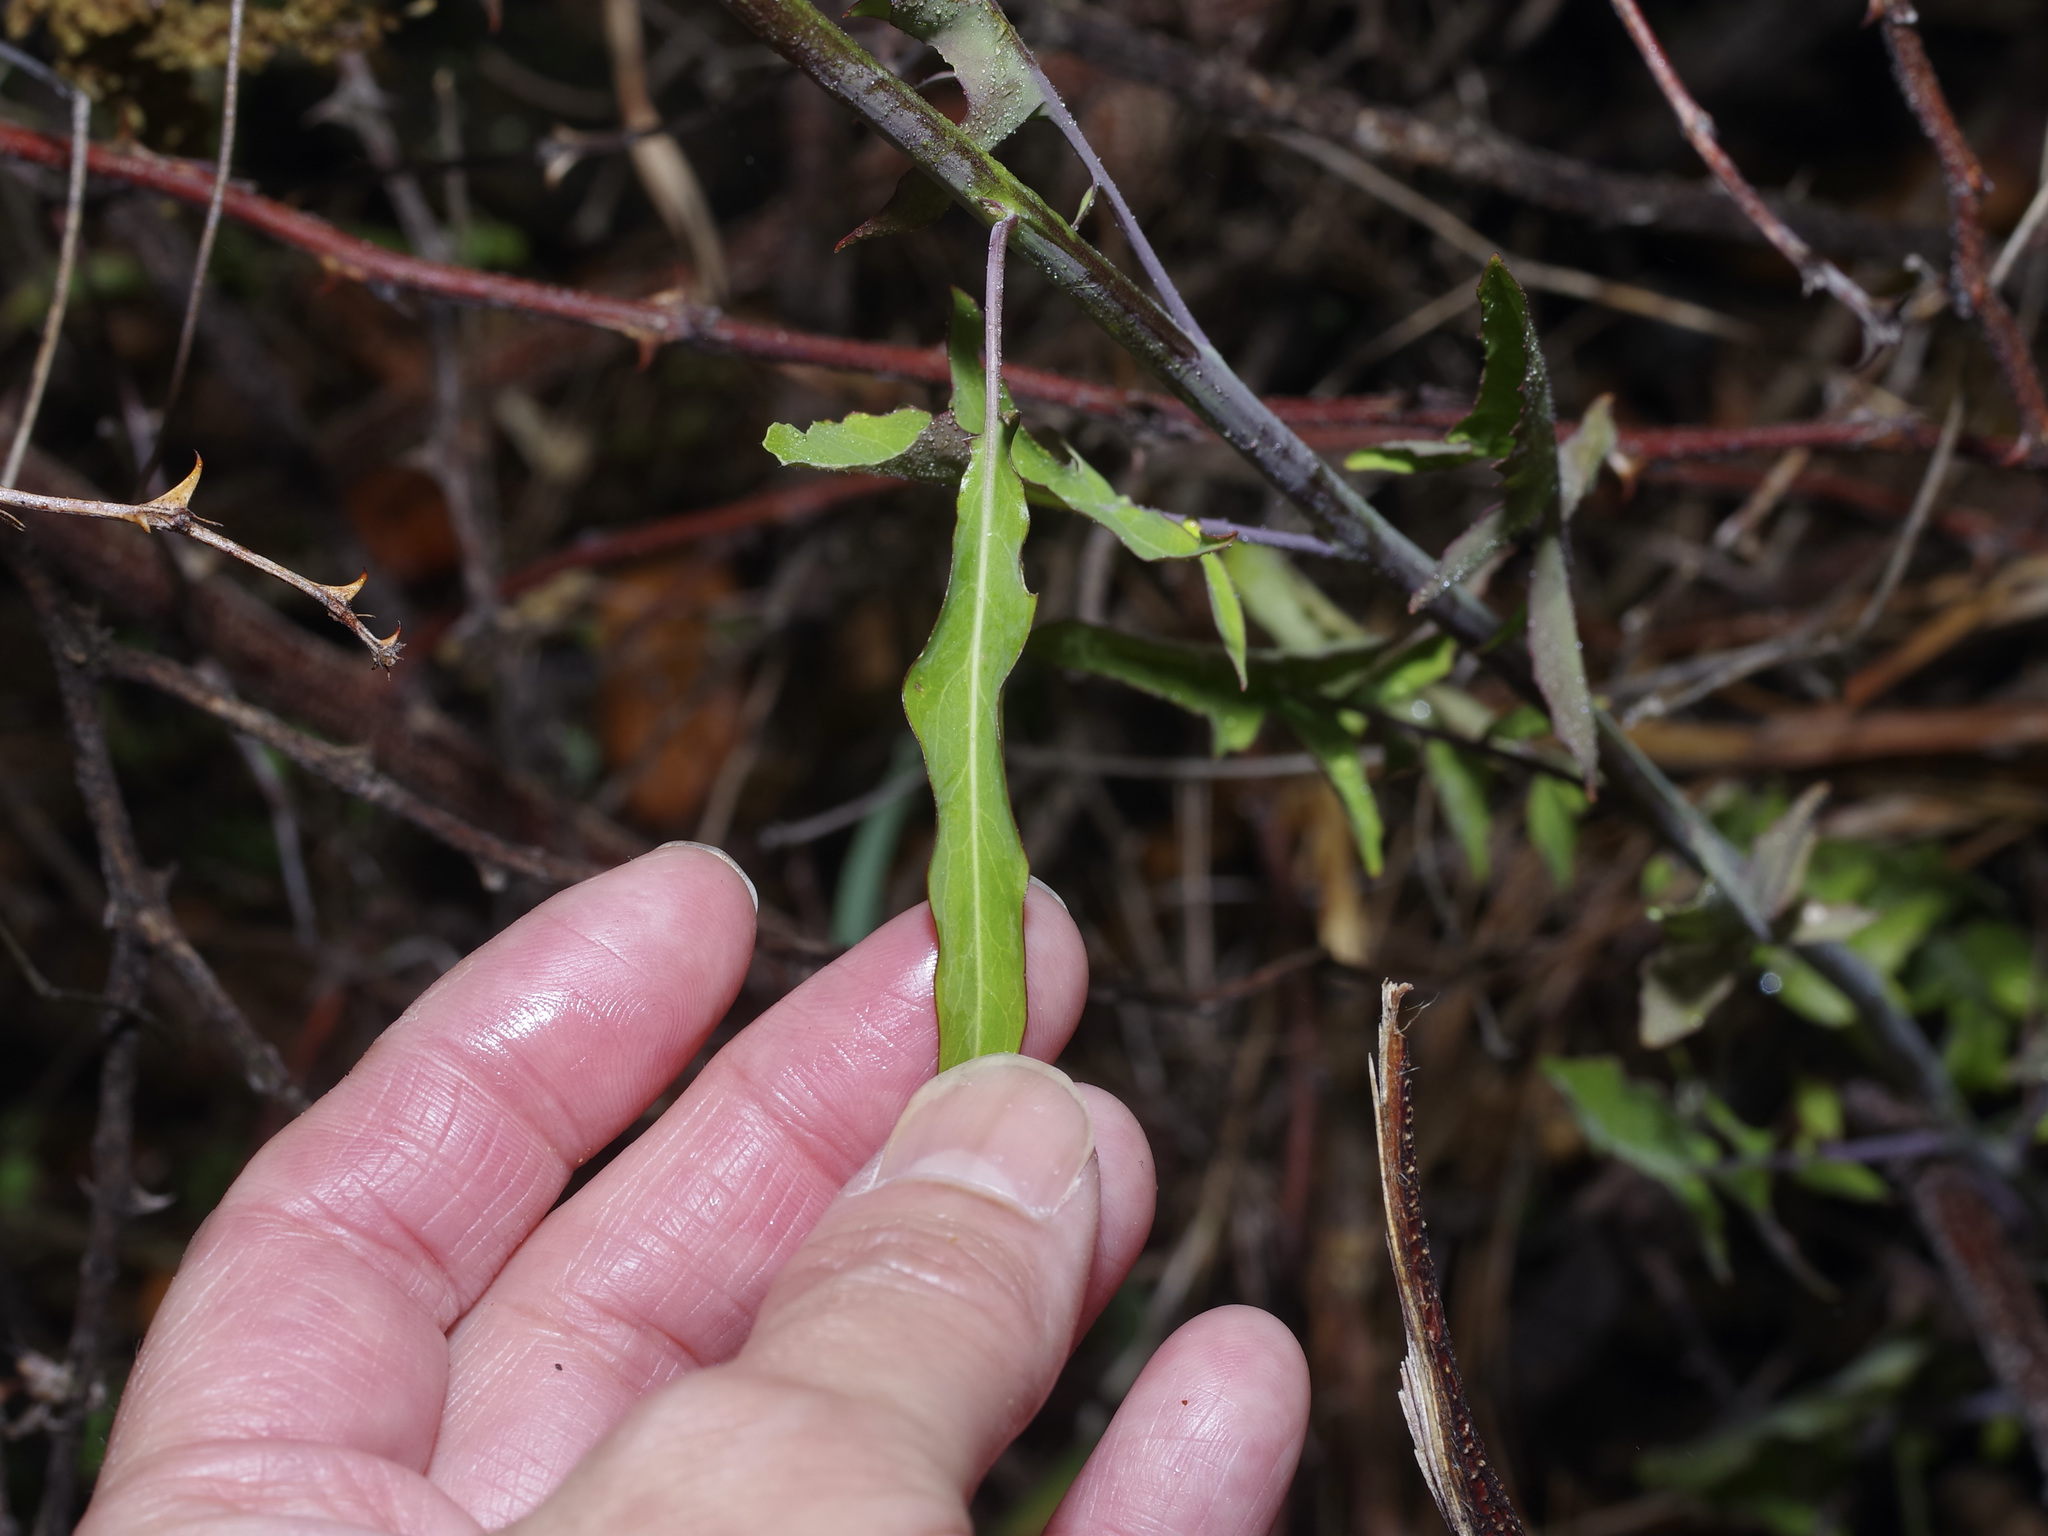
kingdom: Plantae
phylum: Tracheophyta
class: Magnoliopsida
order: Brassicales
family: Brassicaceae
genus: Streptanthus
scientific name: Streptanthus petiolaris
